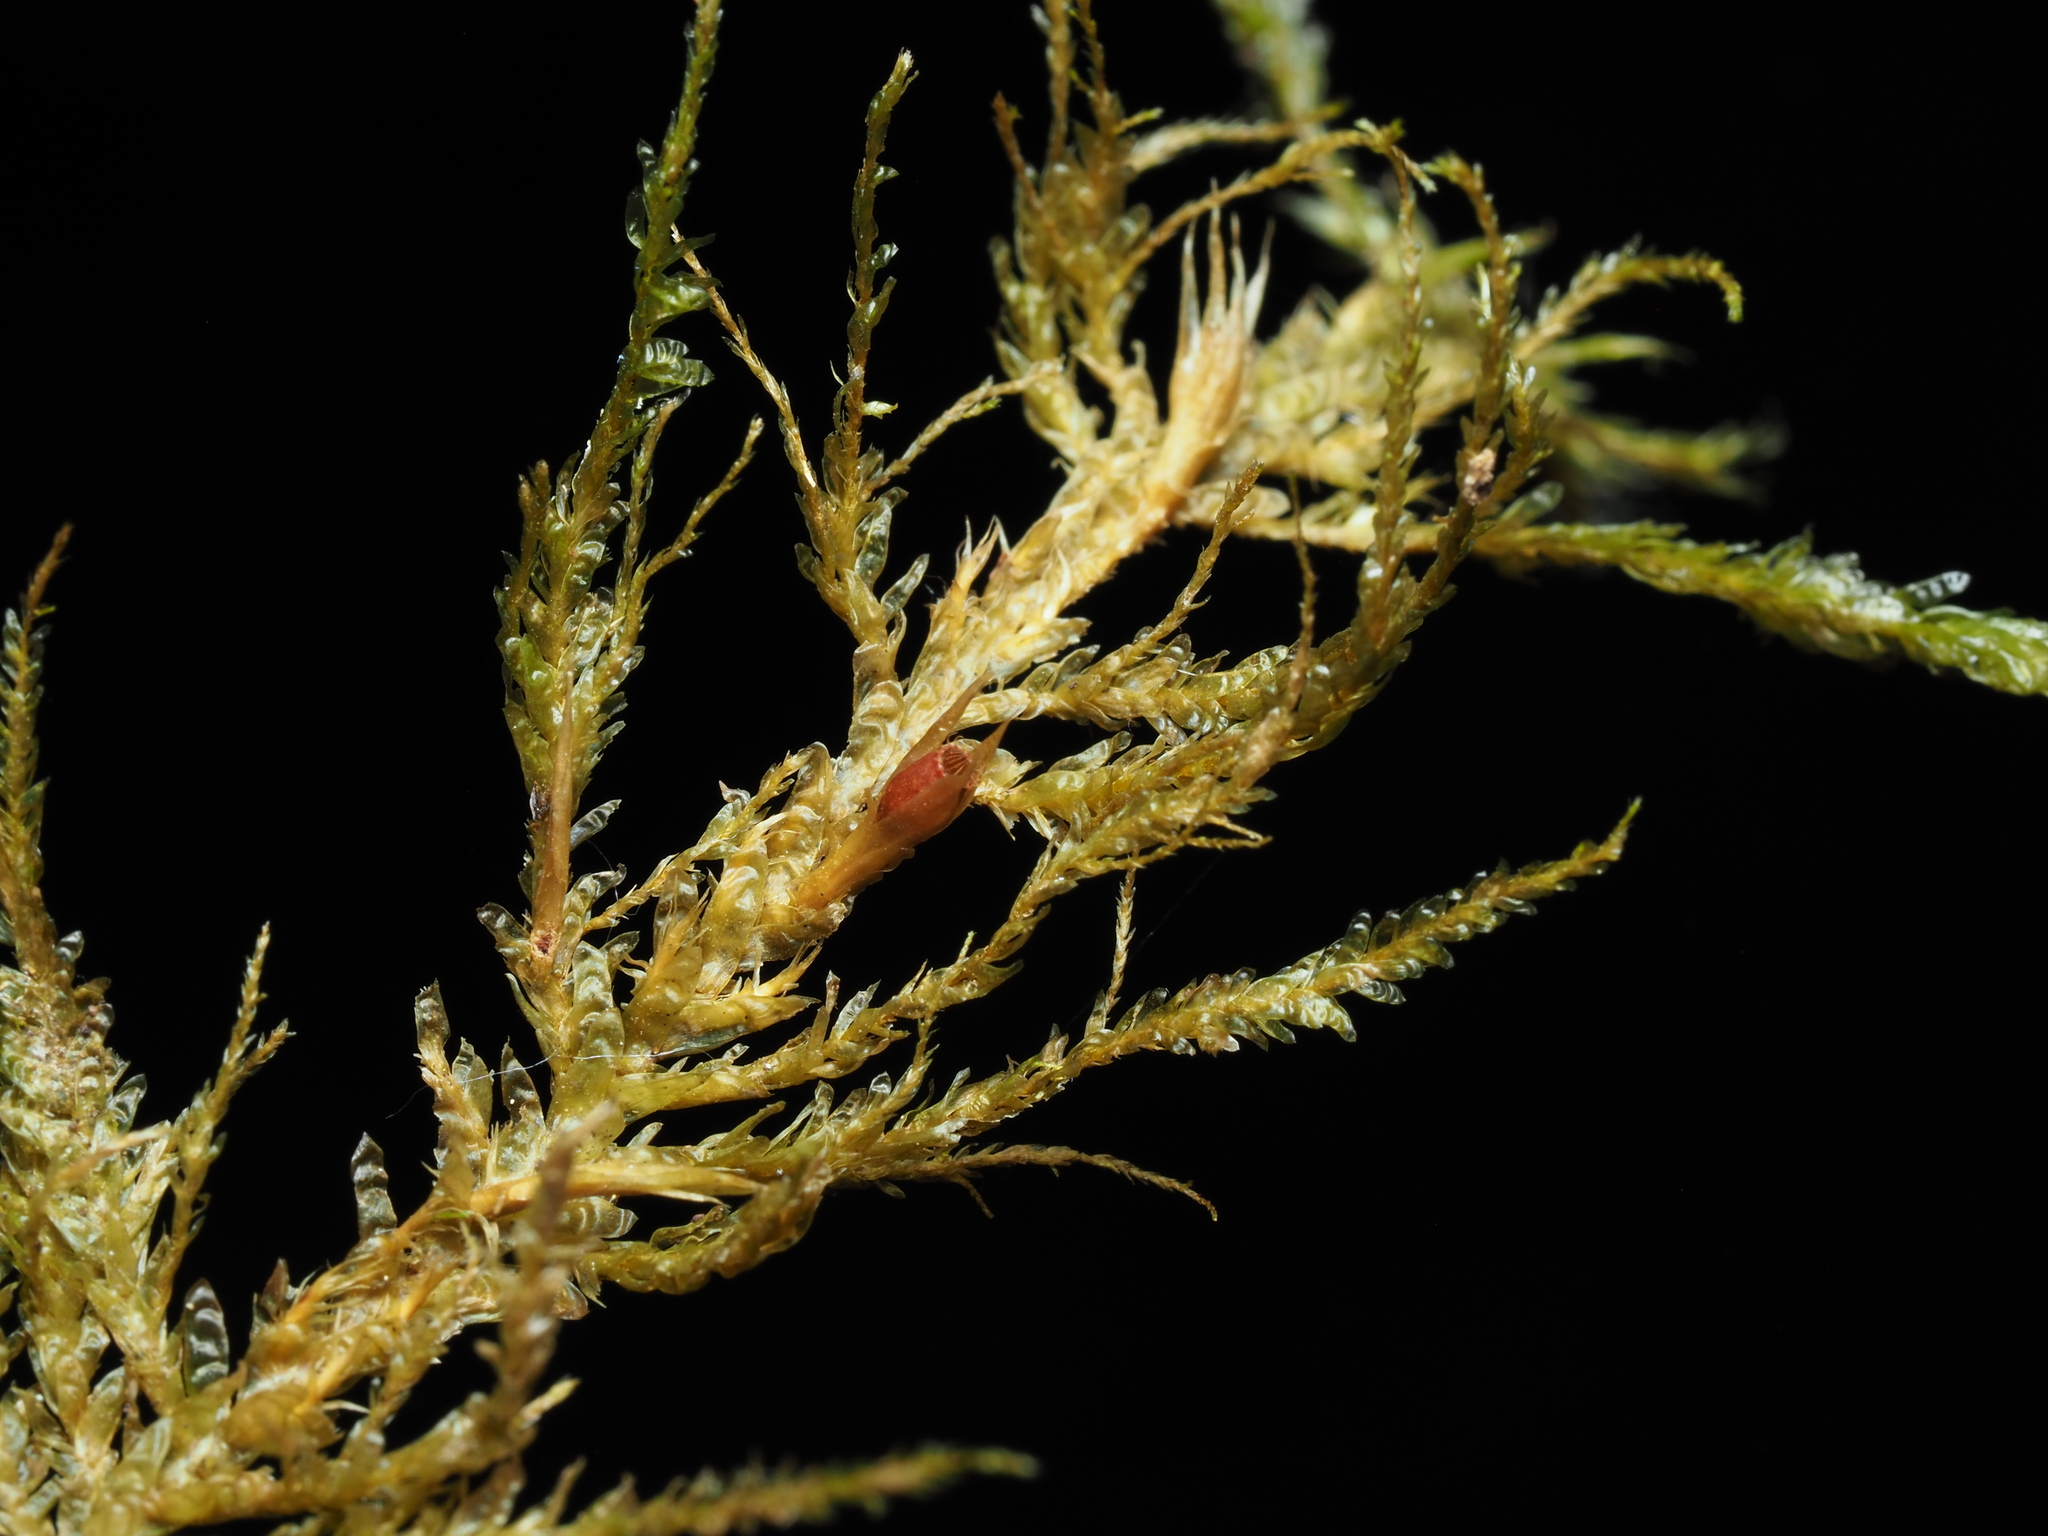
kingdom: Plantae
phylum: Bryophyta
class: Bryopsida
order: Hypnales
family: Neckeraceae
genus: Metaneckera
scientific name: Metaneckera menziesii
